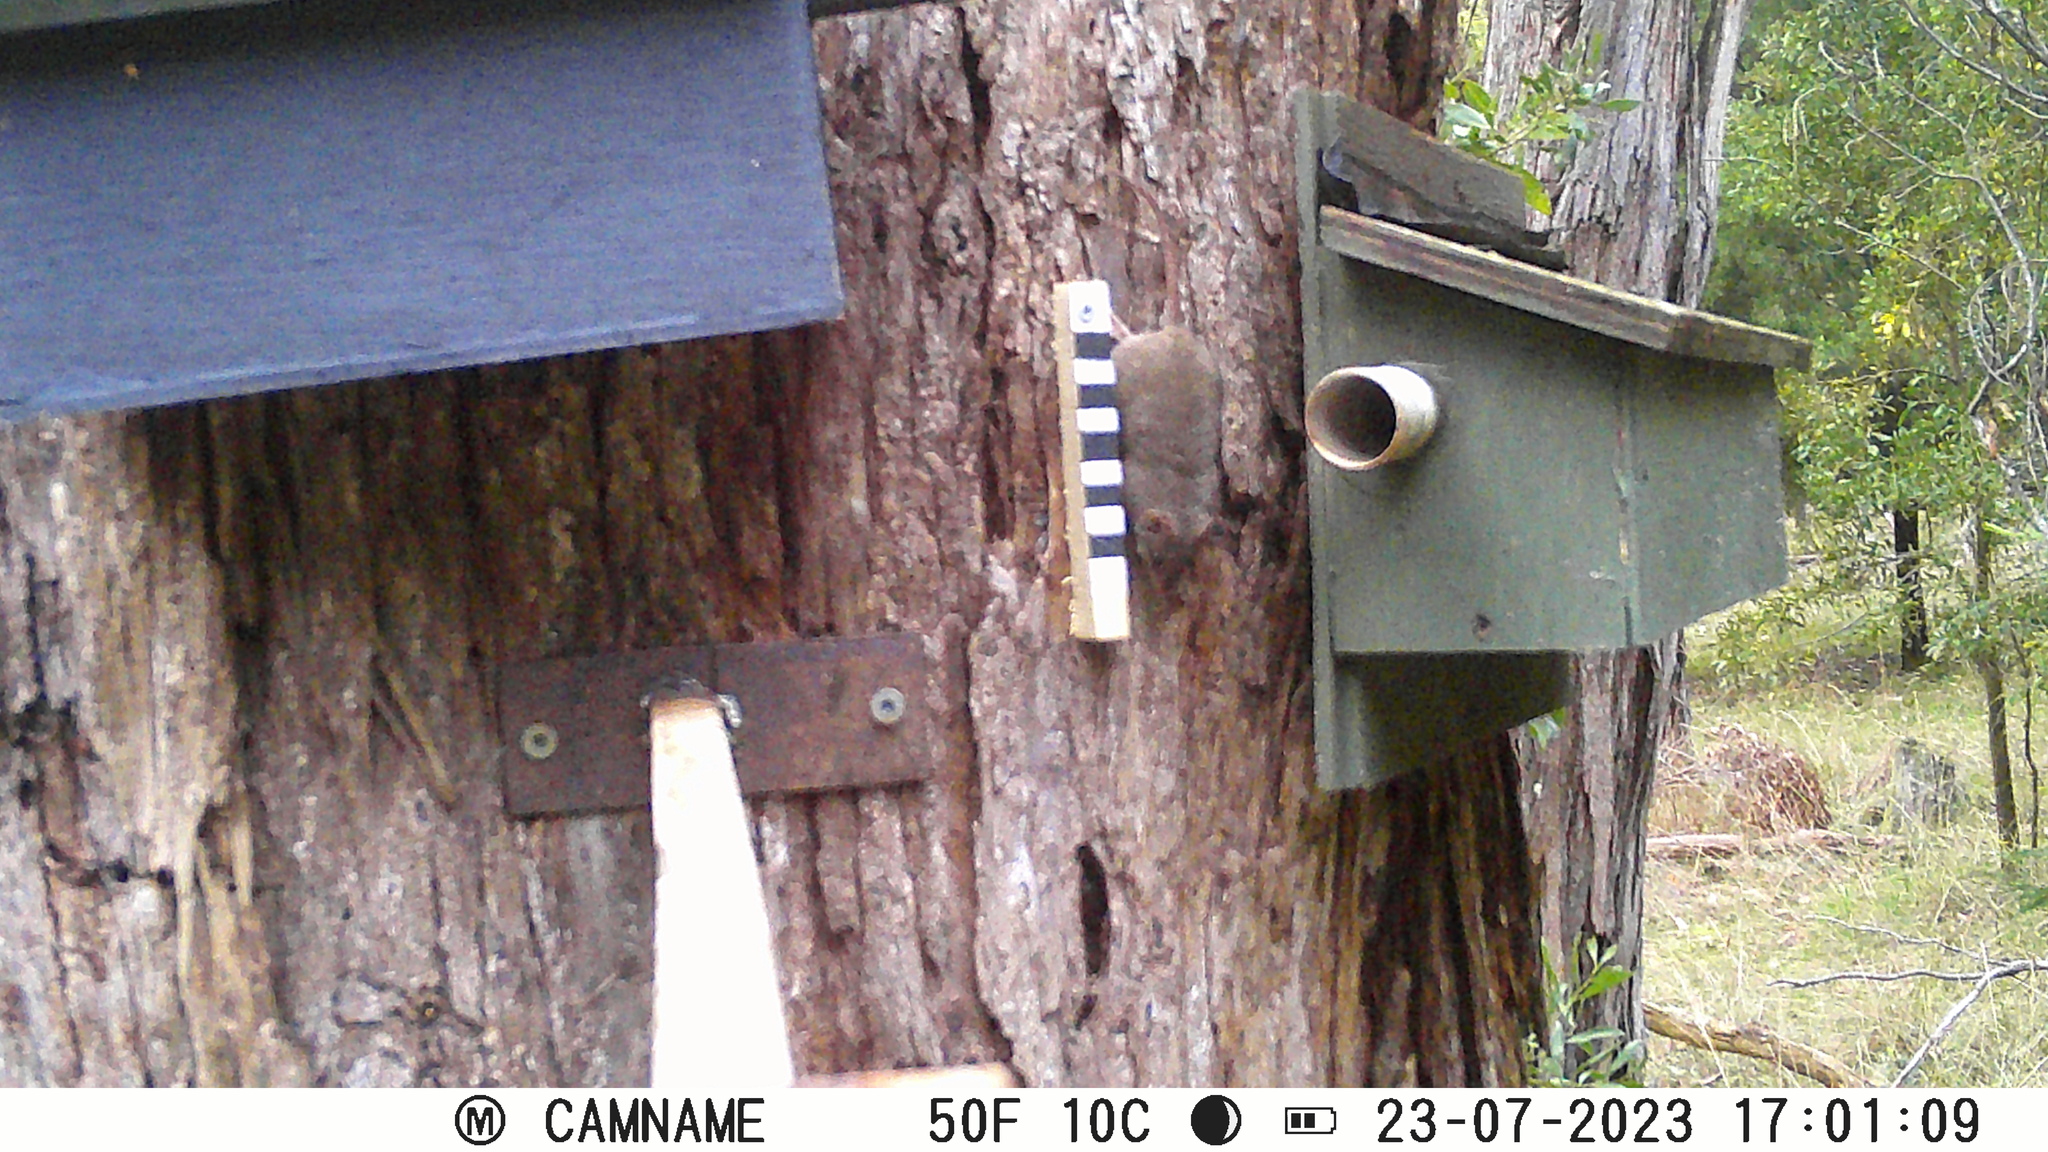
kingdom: Animalia
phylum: Chordata
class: Mammalia
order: Dasyuromorphia
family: Dasyuridae
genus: Antechinus
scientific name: Antechinus agilis
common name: Agile antechinus
